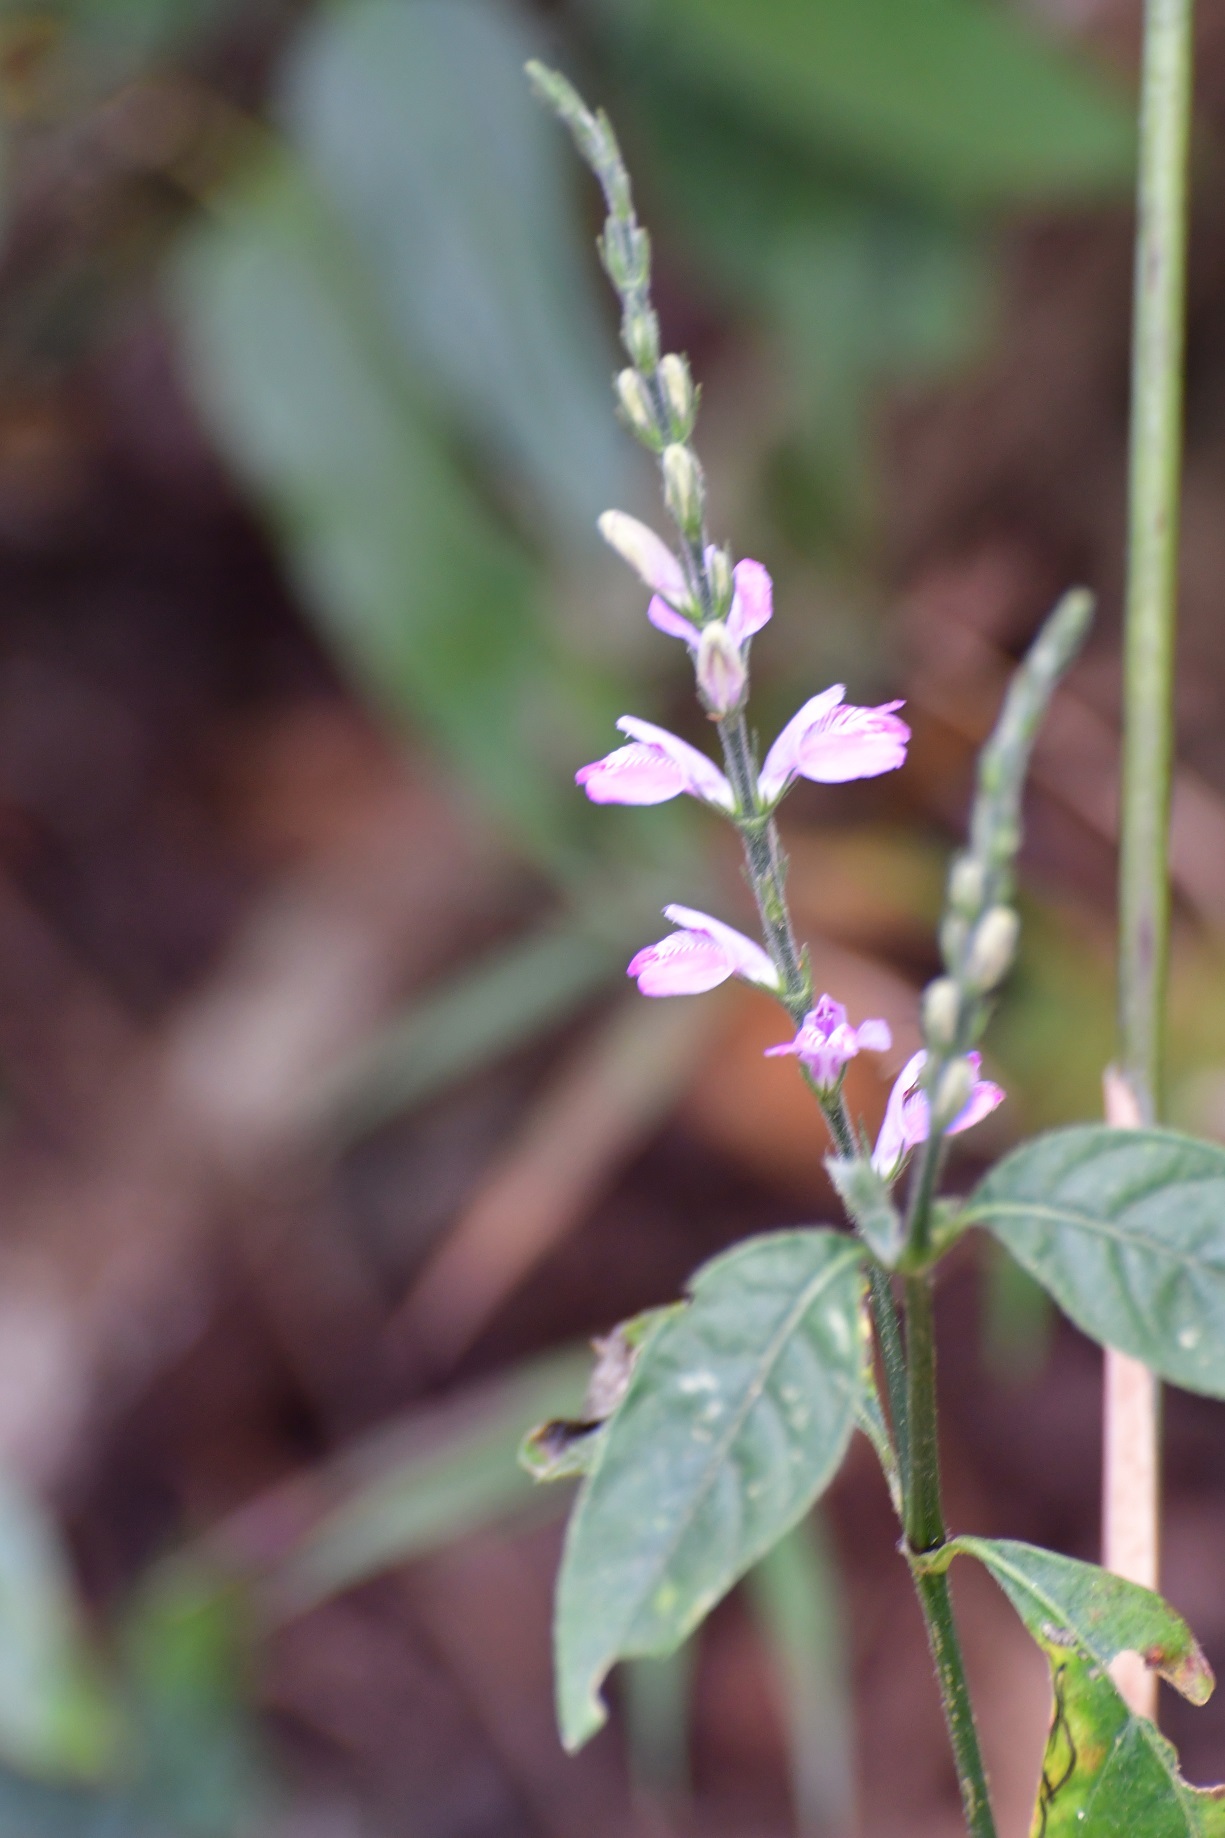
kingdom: Plantae
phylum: Tracheophyta
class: Magnoliopsida
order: Lamiales
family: Acanthaceae
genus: Dianthera
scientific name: Dianthera breviflora
